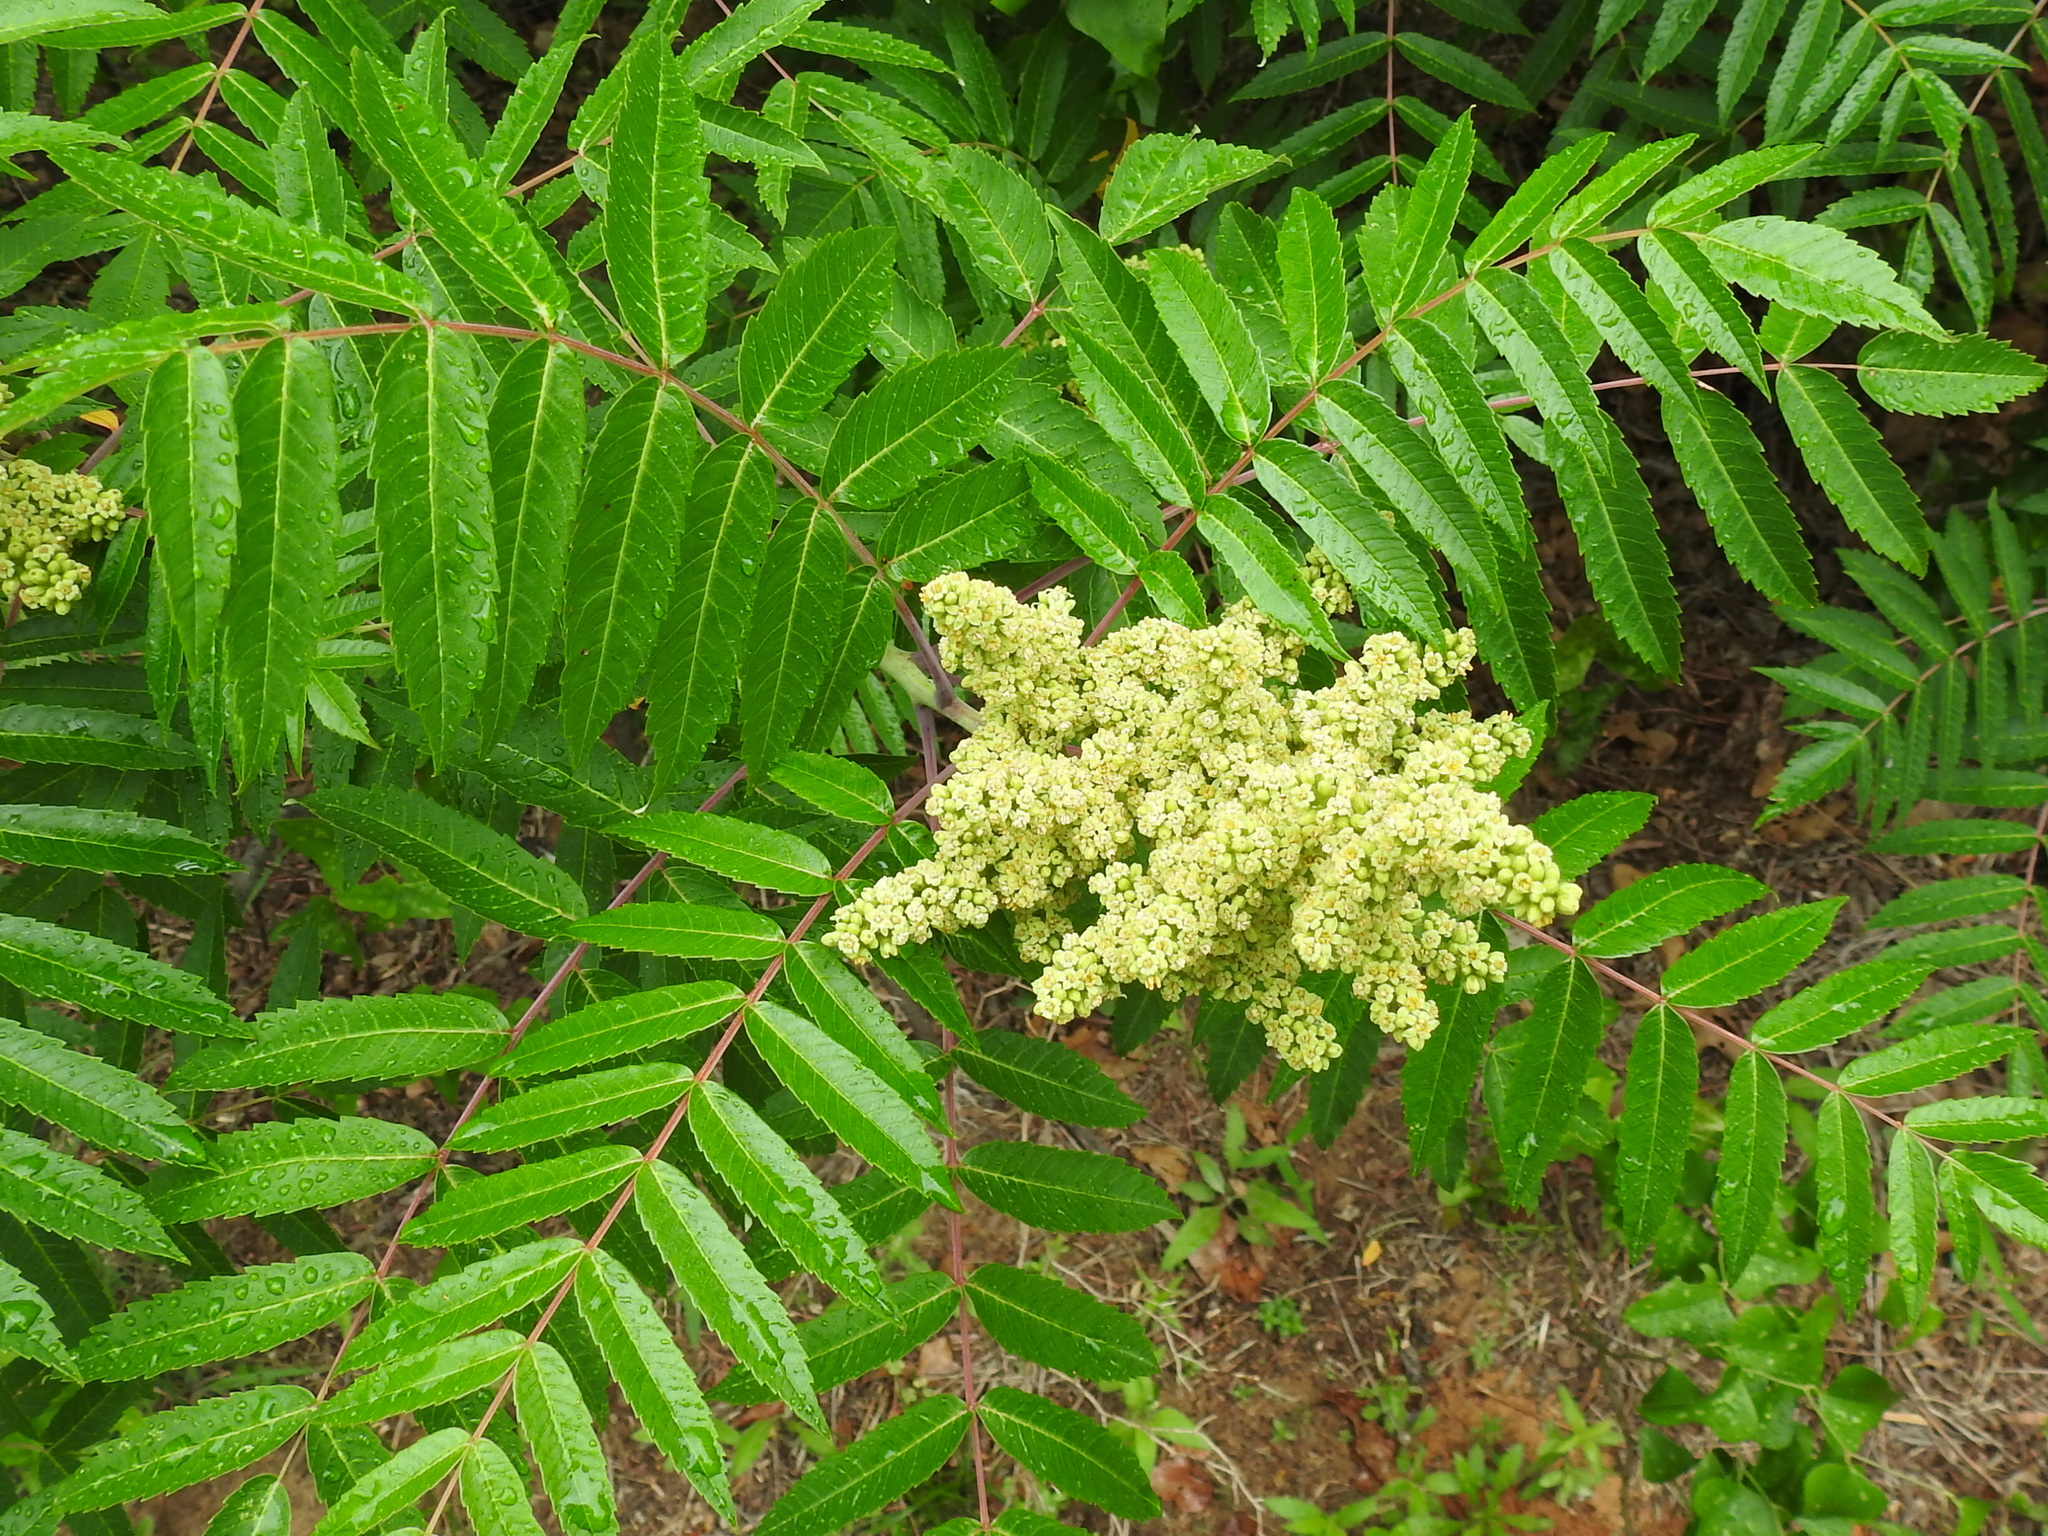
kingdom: Plantae
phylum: Tracheophyta
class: Magnoliopsida
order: Sapindales
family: Anacardiaceae
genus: Rhus
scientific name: Rhus glabra
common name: Scarlet sumac
